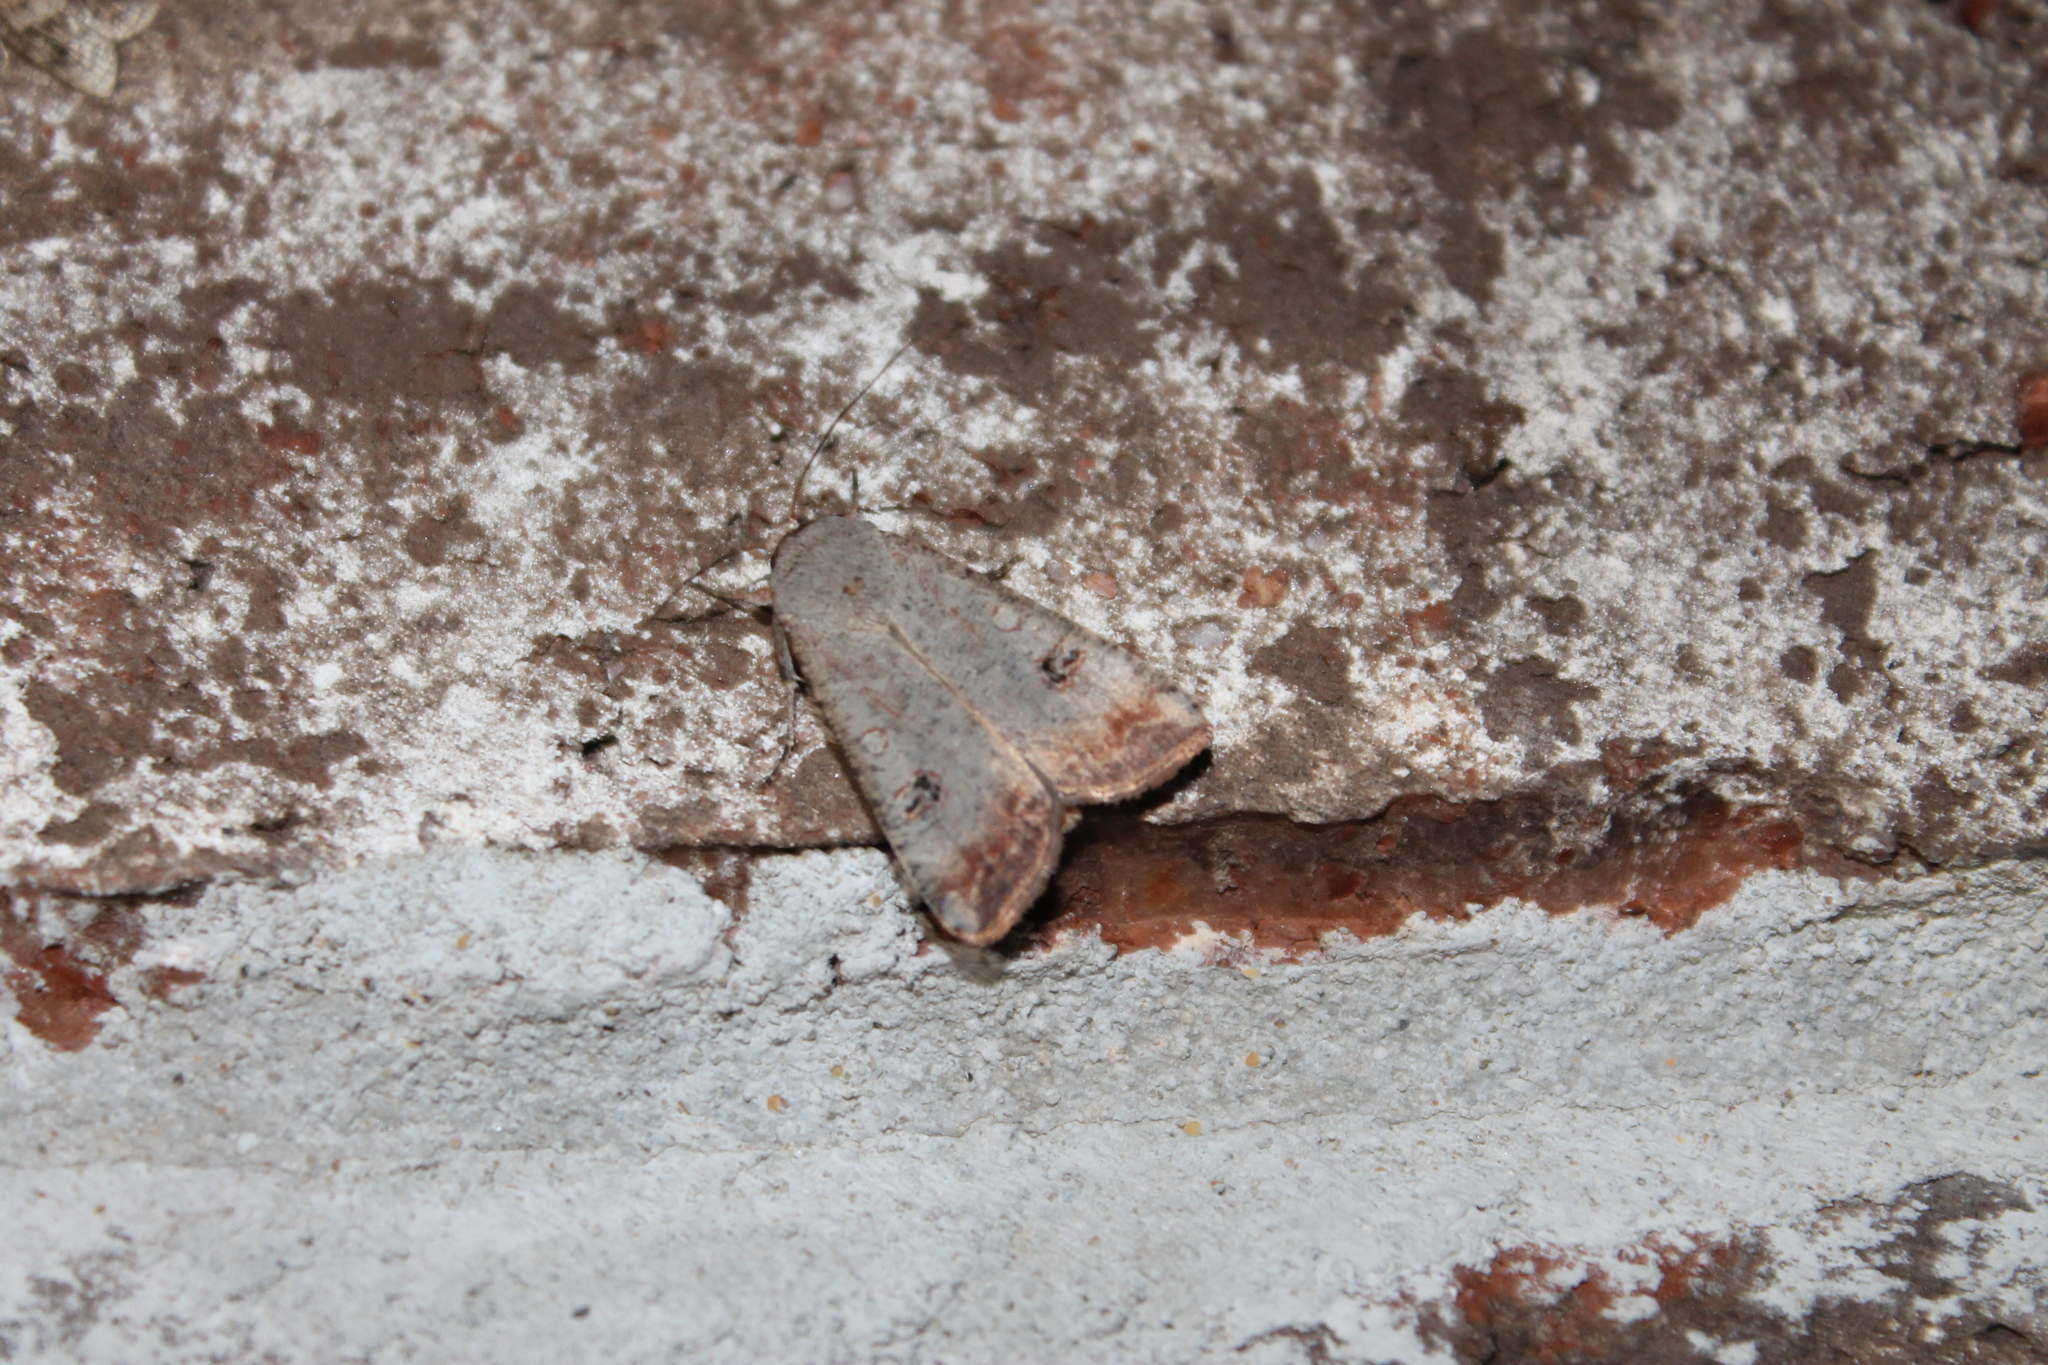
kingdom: Animalia
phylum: Arthropoda
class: Insecta
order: Lepidoptera
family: Noctuidae
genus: Anicla
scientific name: Anicla infecta
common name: Green cutworm
